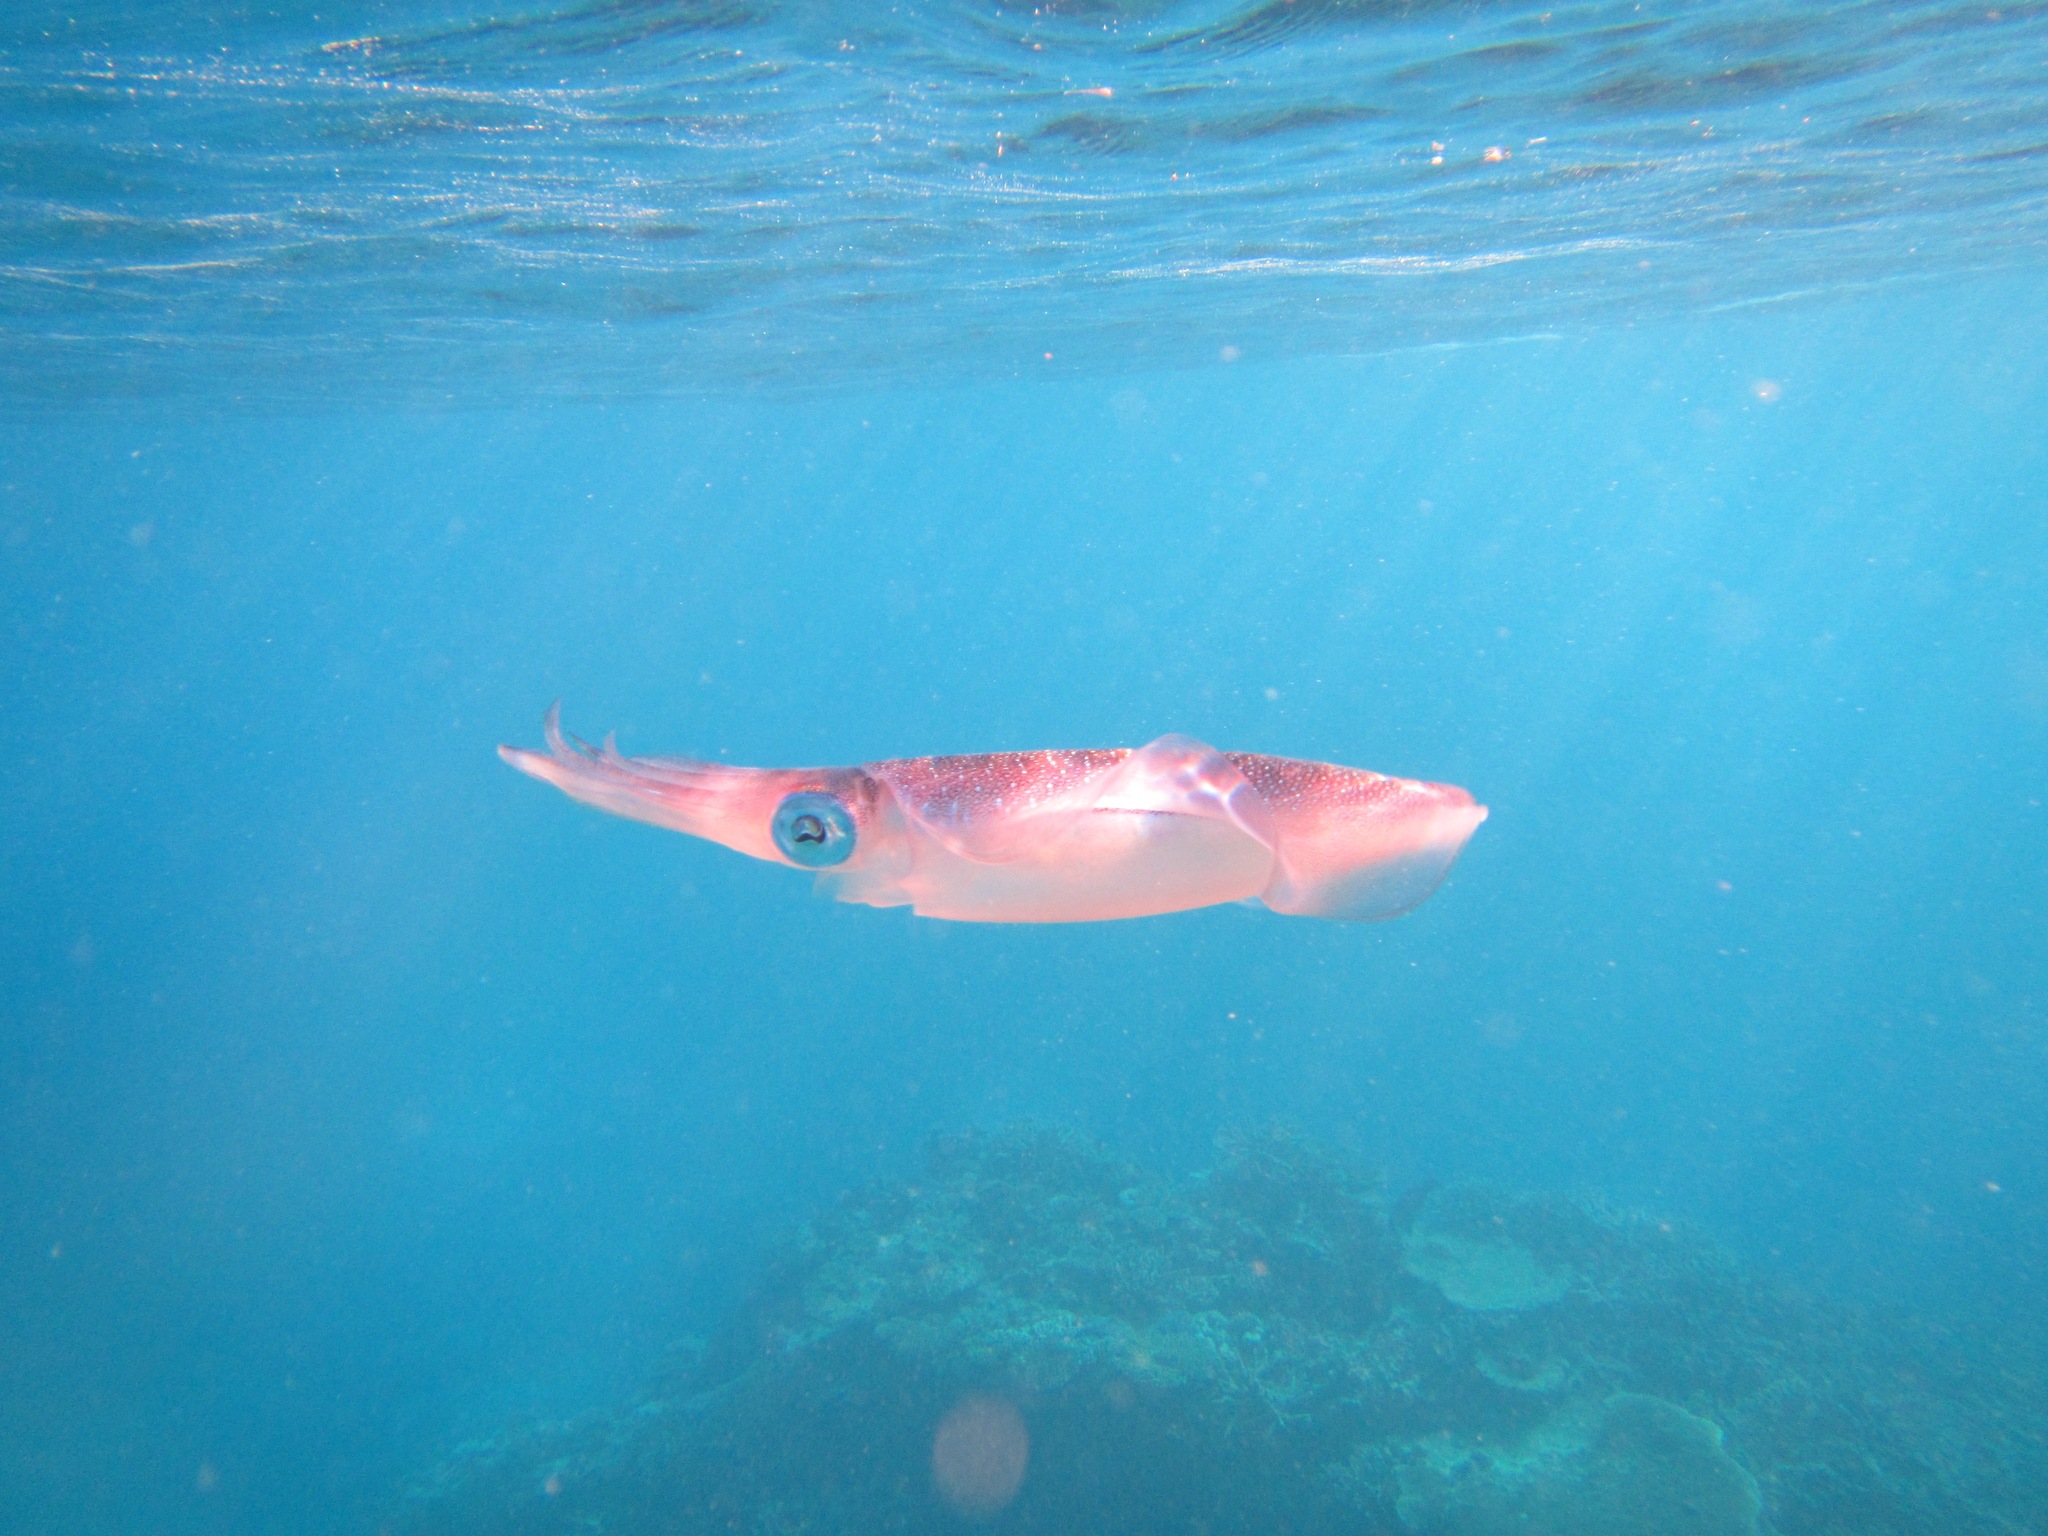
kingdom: Animalia
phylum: Mollusca
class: Cephalopoda
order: Myopsida
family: Loliginidae
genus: Sepioteuthis
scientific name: Sepioteuthis lessoniana
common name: Bigfin reef squid
